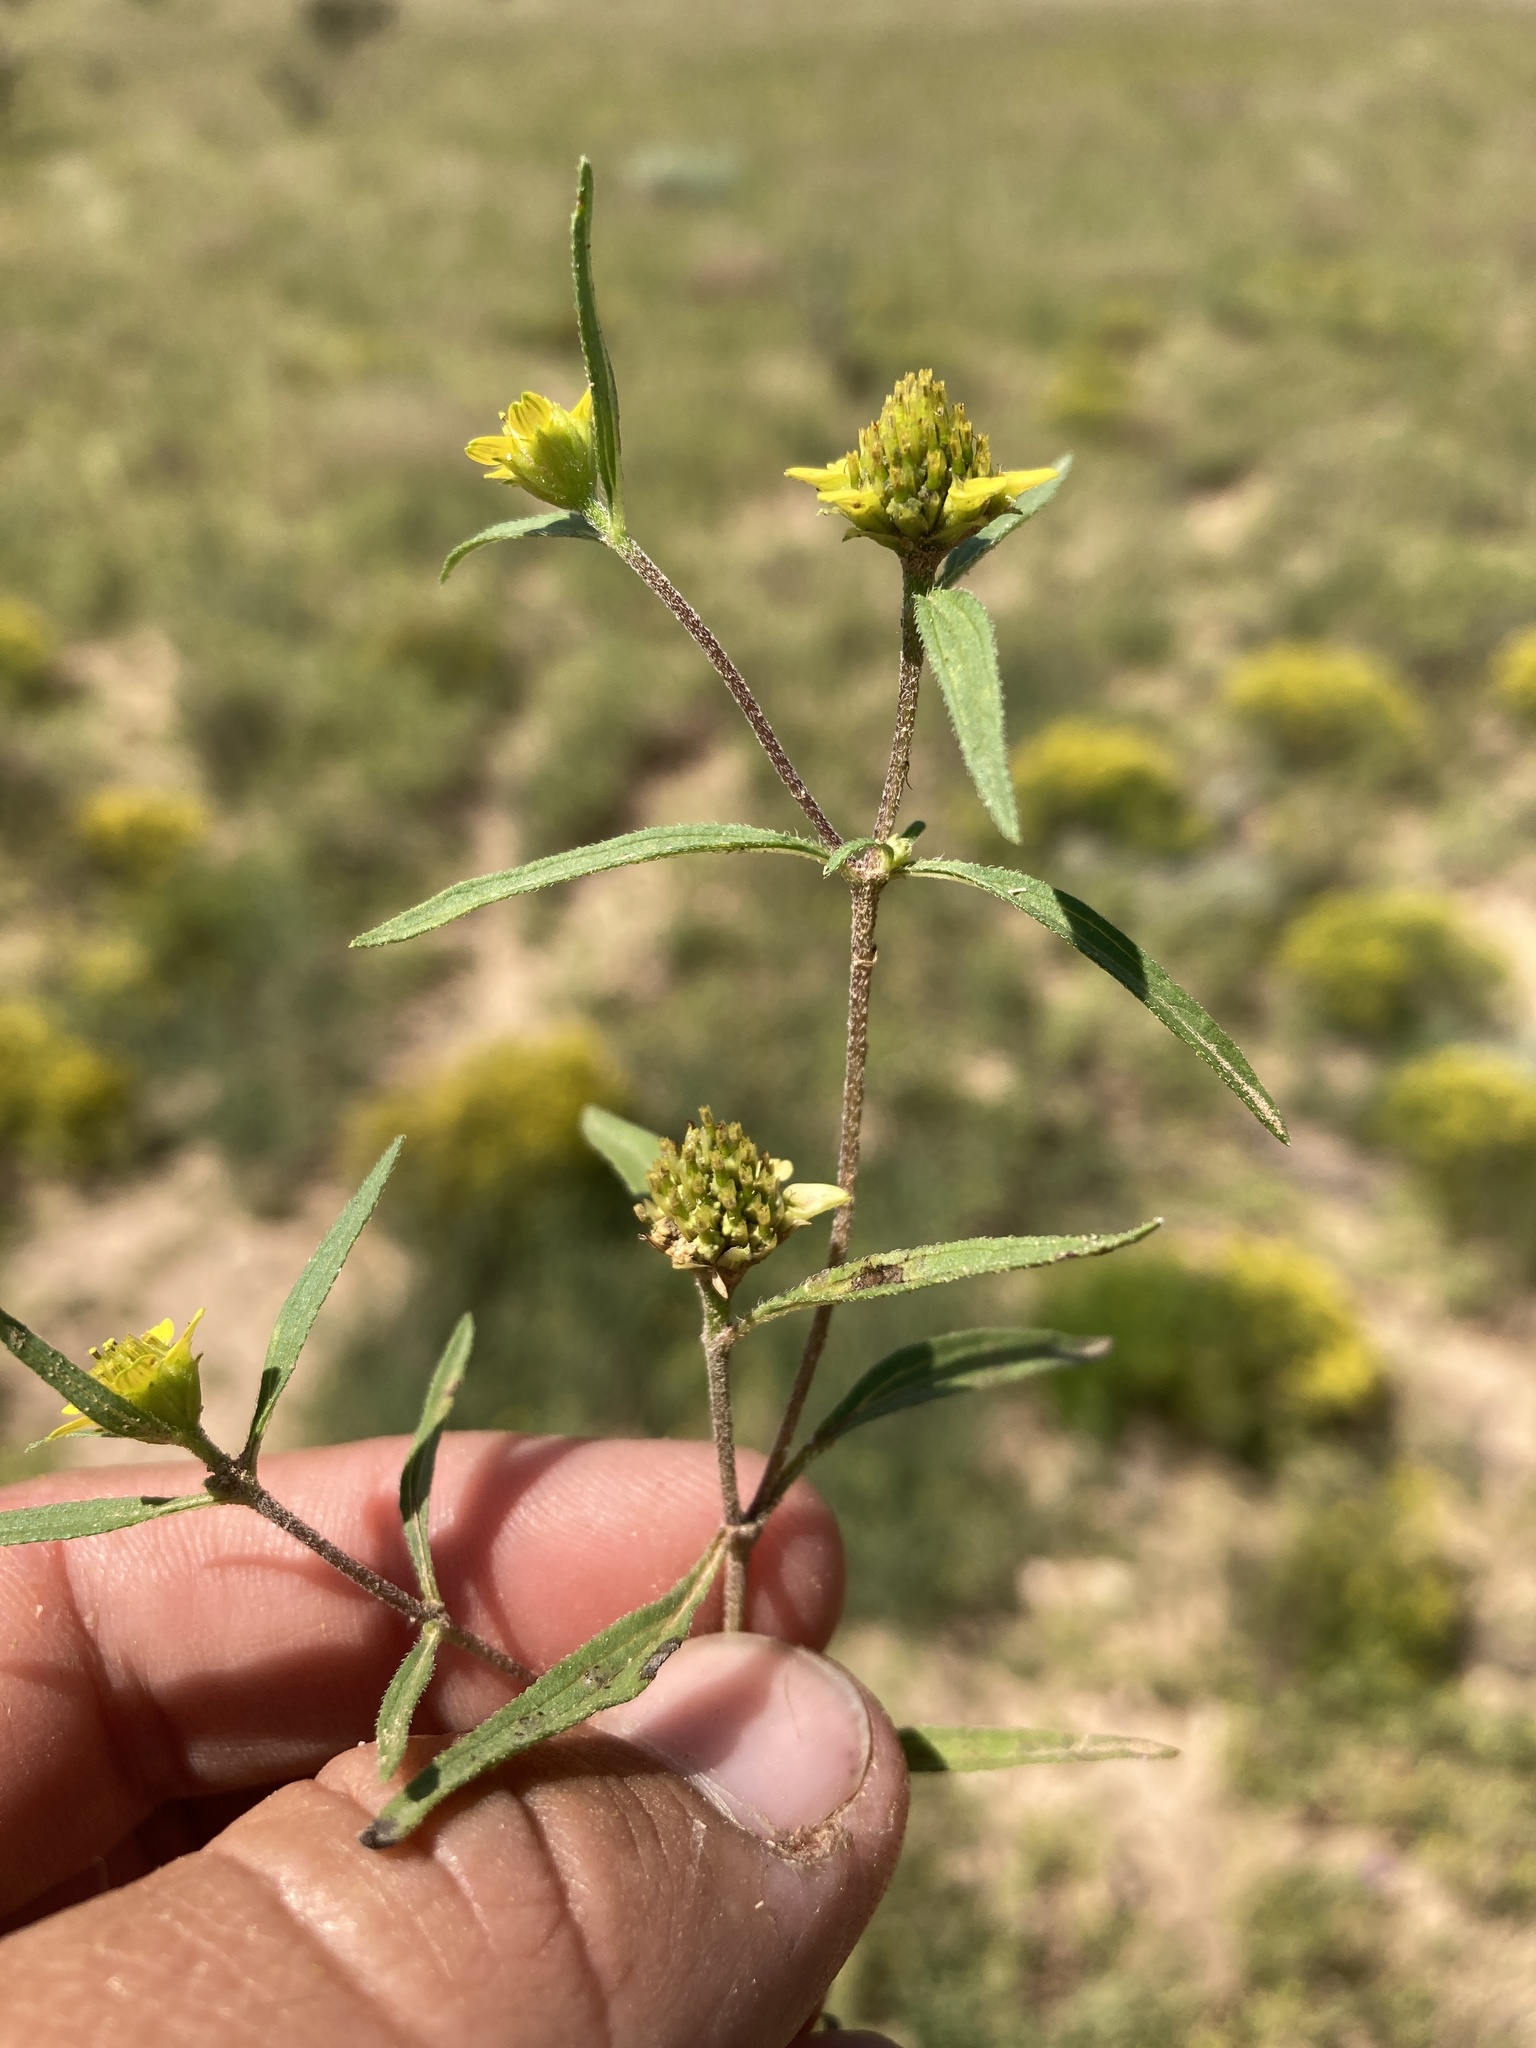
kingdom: Plantae
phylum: Tracheophyta
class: Magnoliopsida
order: Asterales
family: Asteraceae
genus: Sanvitalia
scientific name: Sanvitalia abertii
